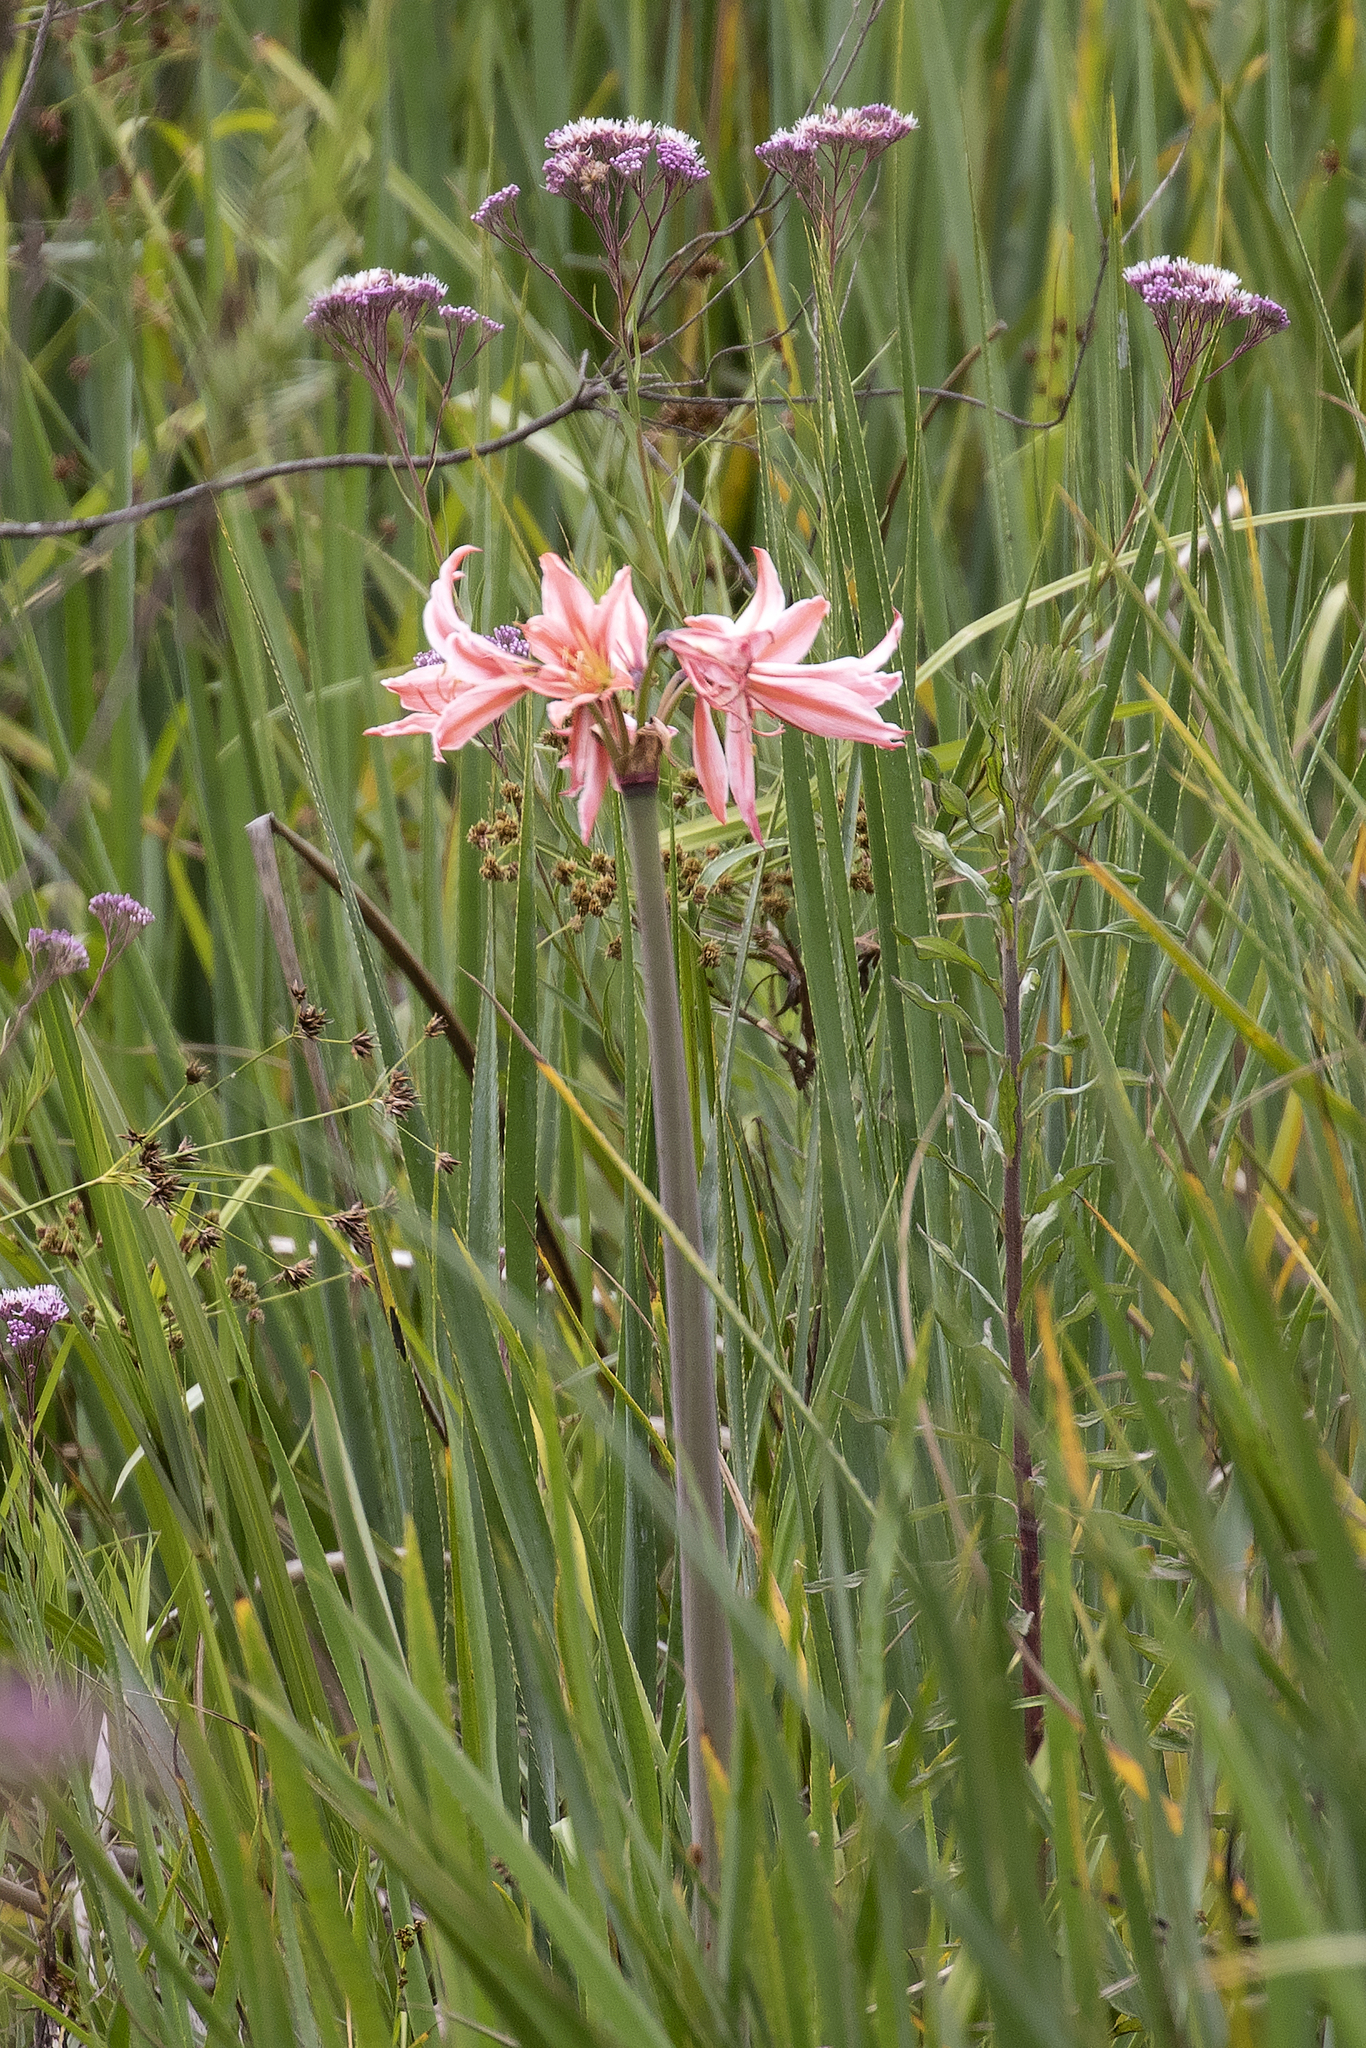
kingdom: Plantae
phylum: Tracheophyta
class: Liliopsida
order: Asparagales
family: Amaryllidaceae
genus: Hippeastrum
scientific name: Hippeastrum breviflorum
